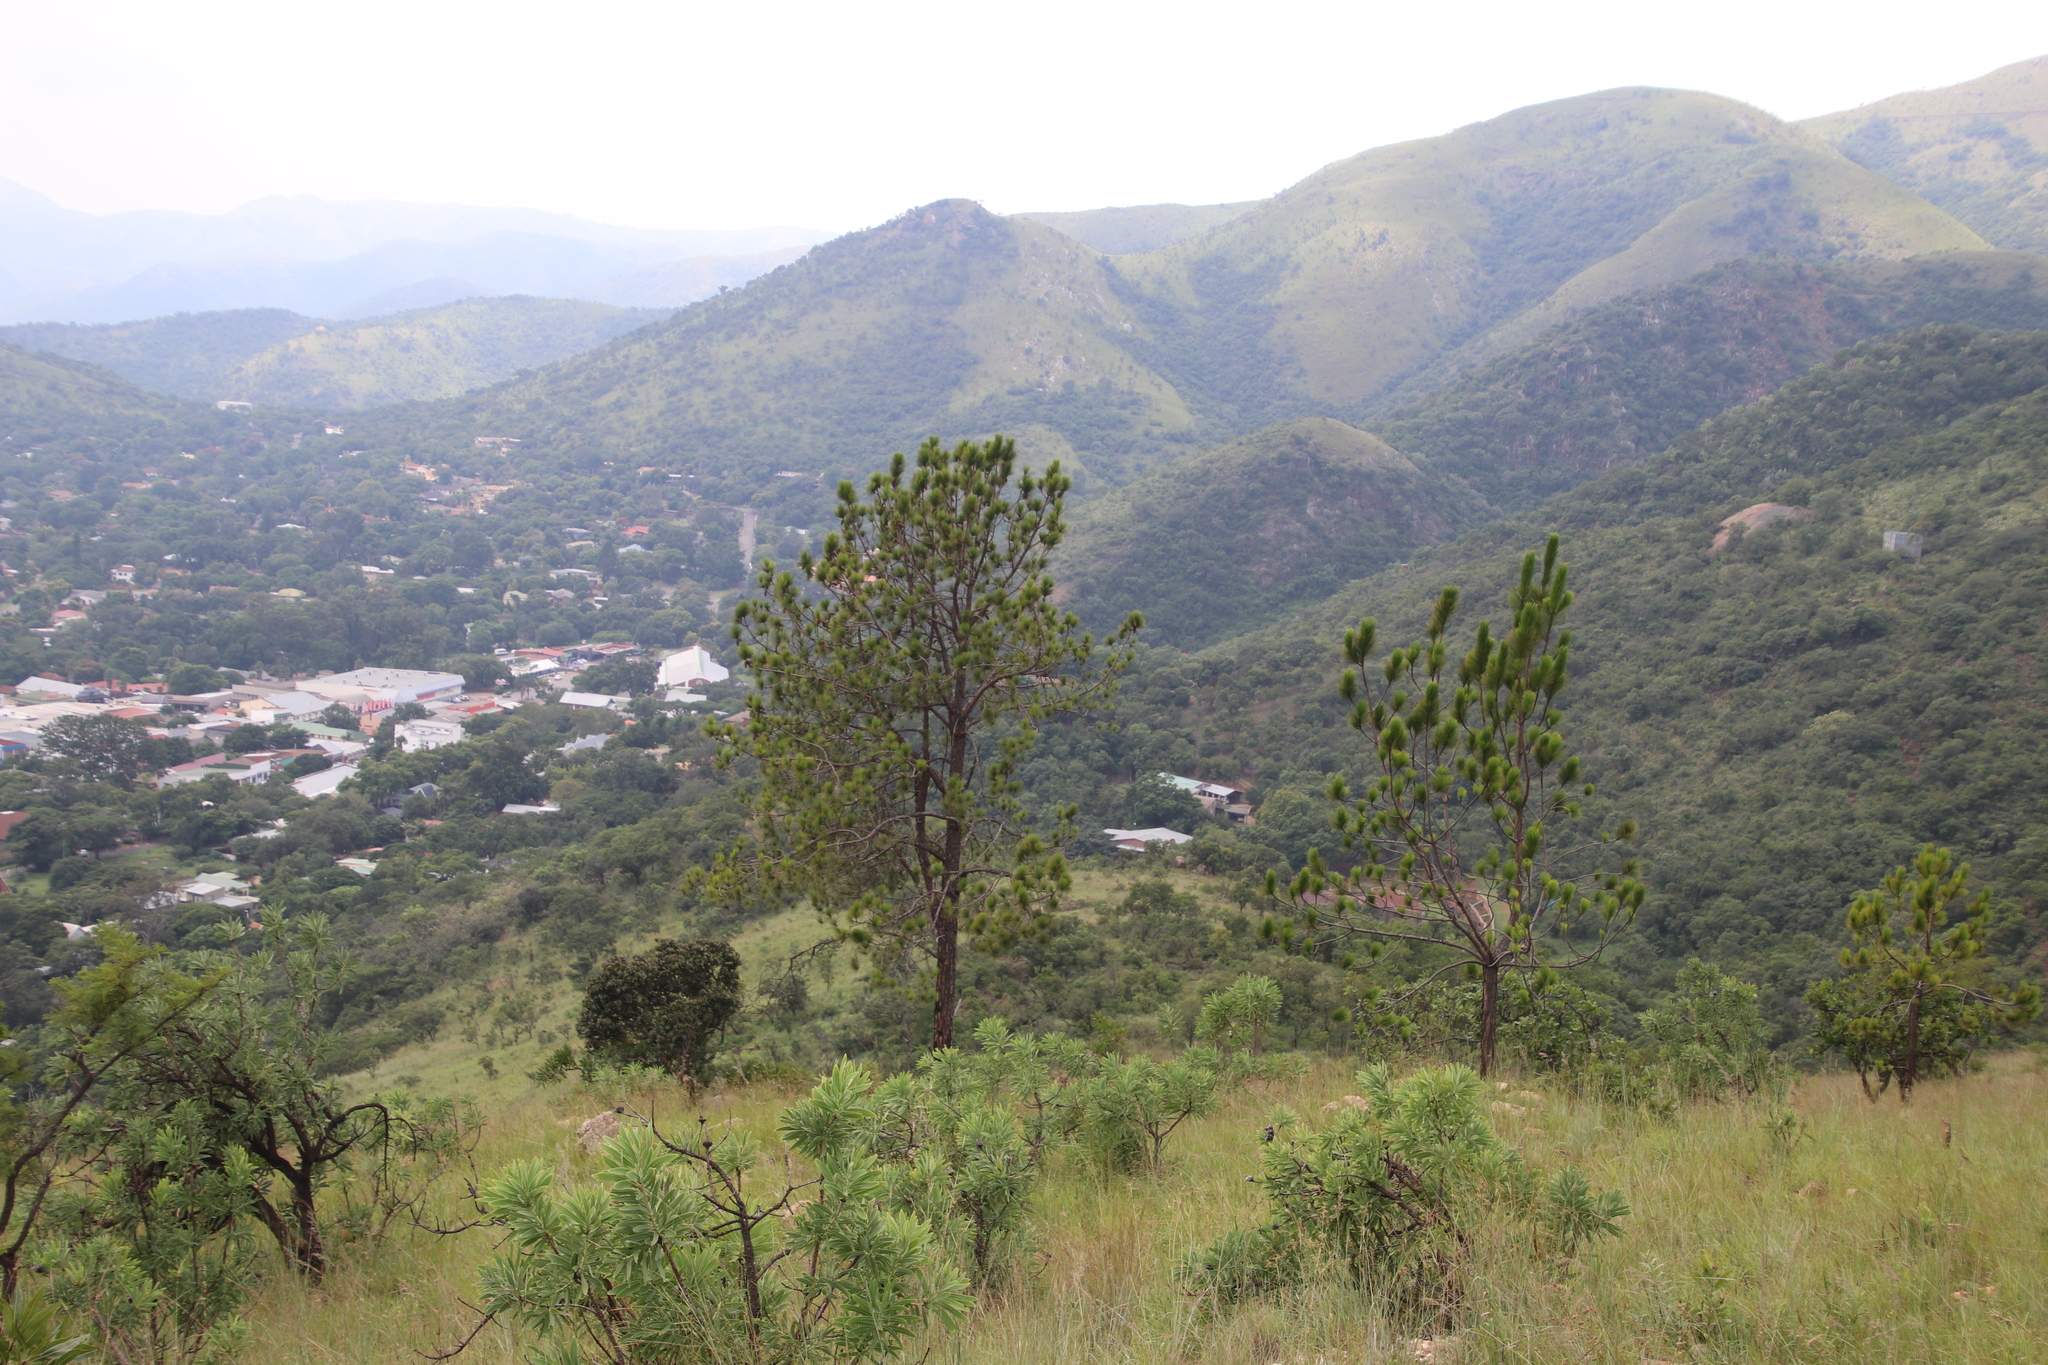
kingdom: Plantae
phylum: Tracheophyta
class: Pinopsida
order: Pinales
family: Pinaceae
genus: Pinus
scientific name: Pinus elliottii
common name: Slash pine
